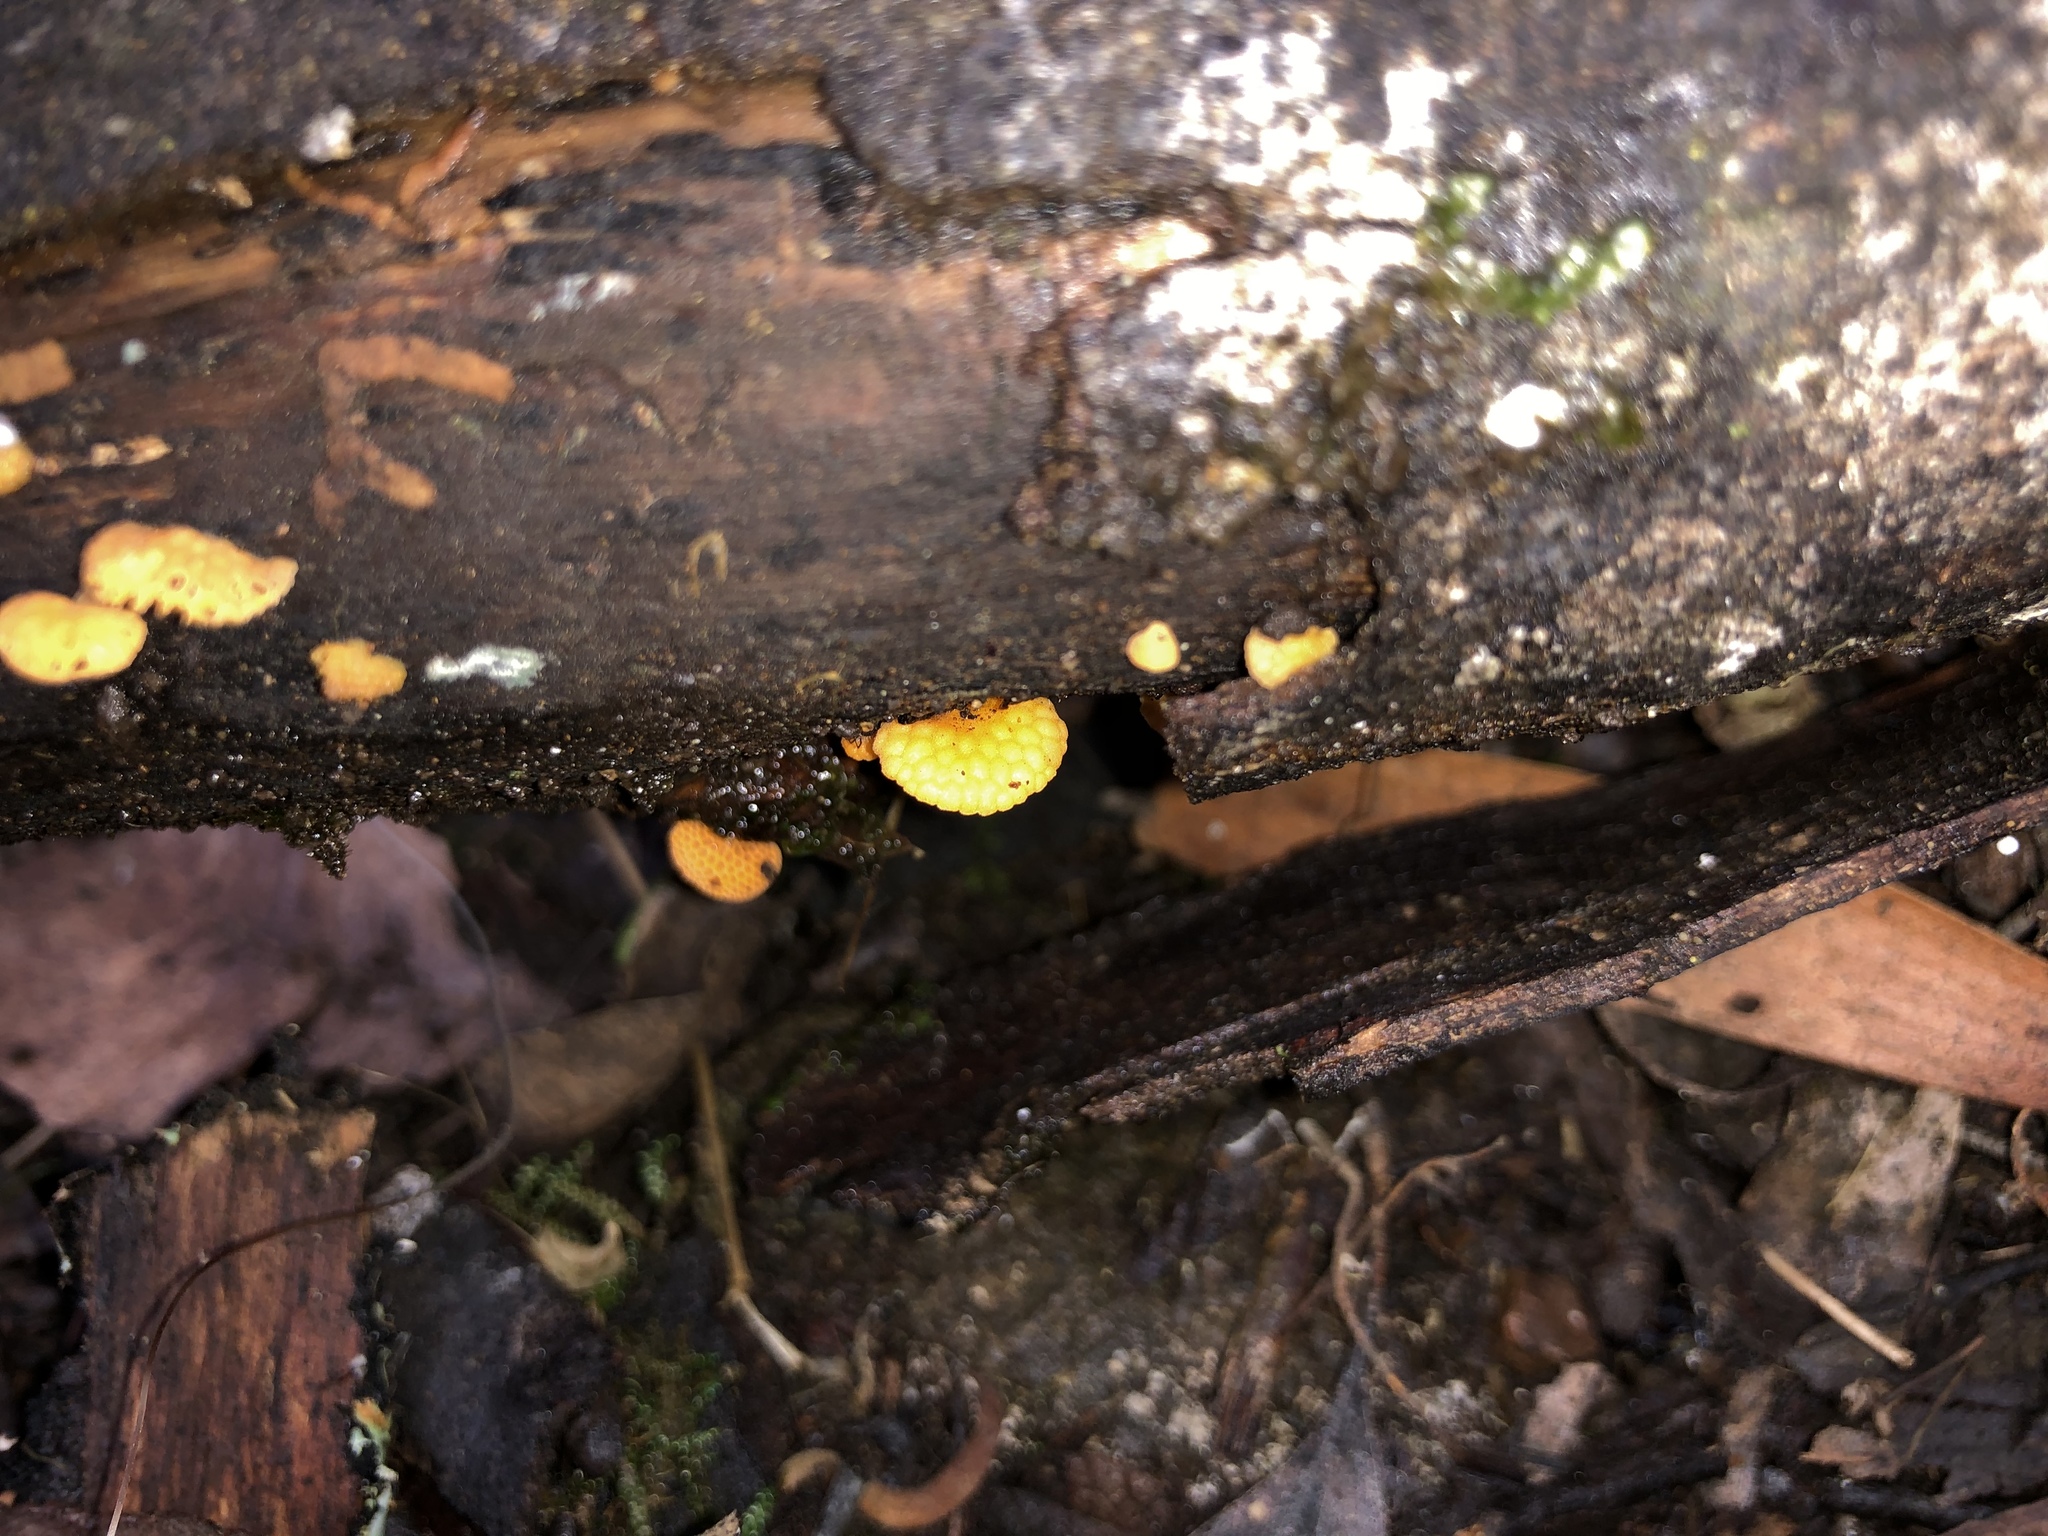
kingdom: Fungi
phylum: Basidiomycota
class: Agaricomycetes
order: Agaricales
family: Mycenaceae
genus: Favolaschia
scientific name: Favolaschia claudopus
